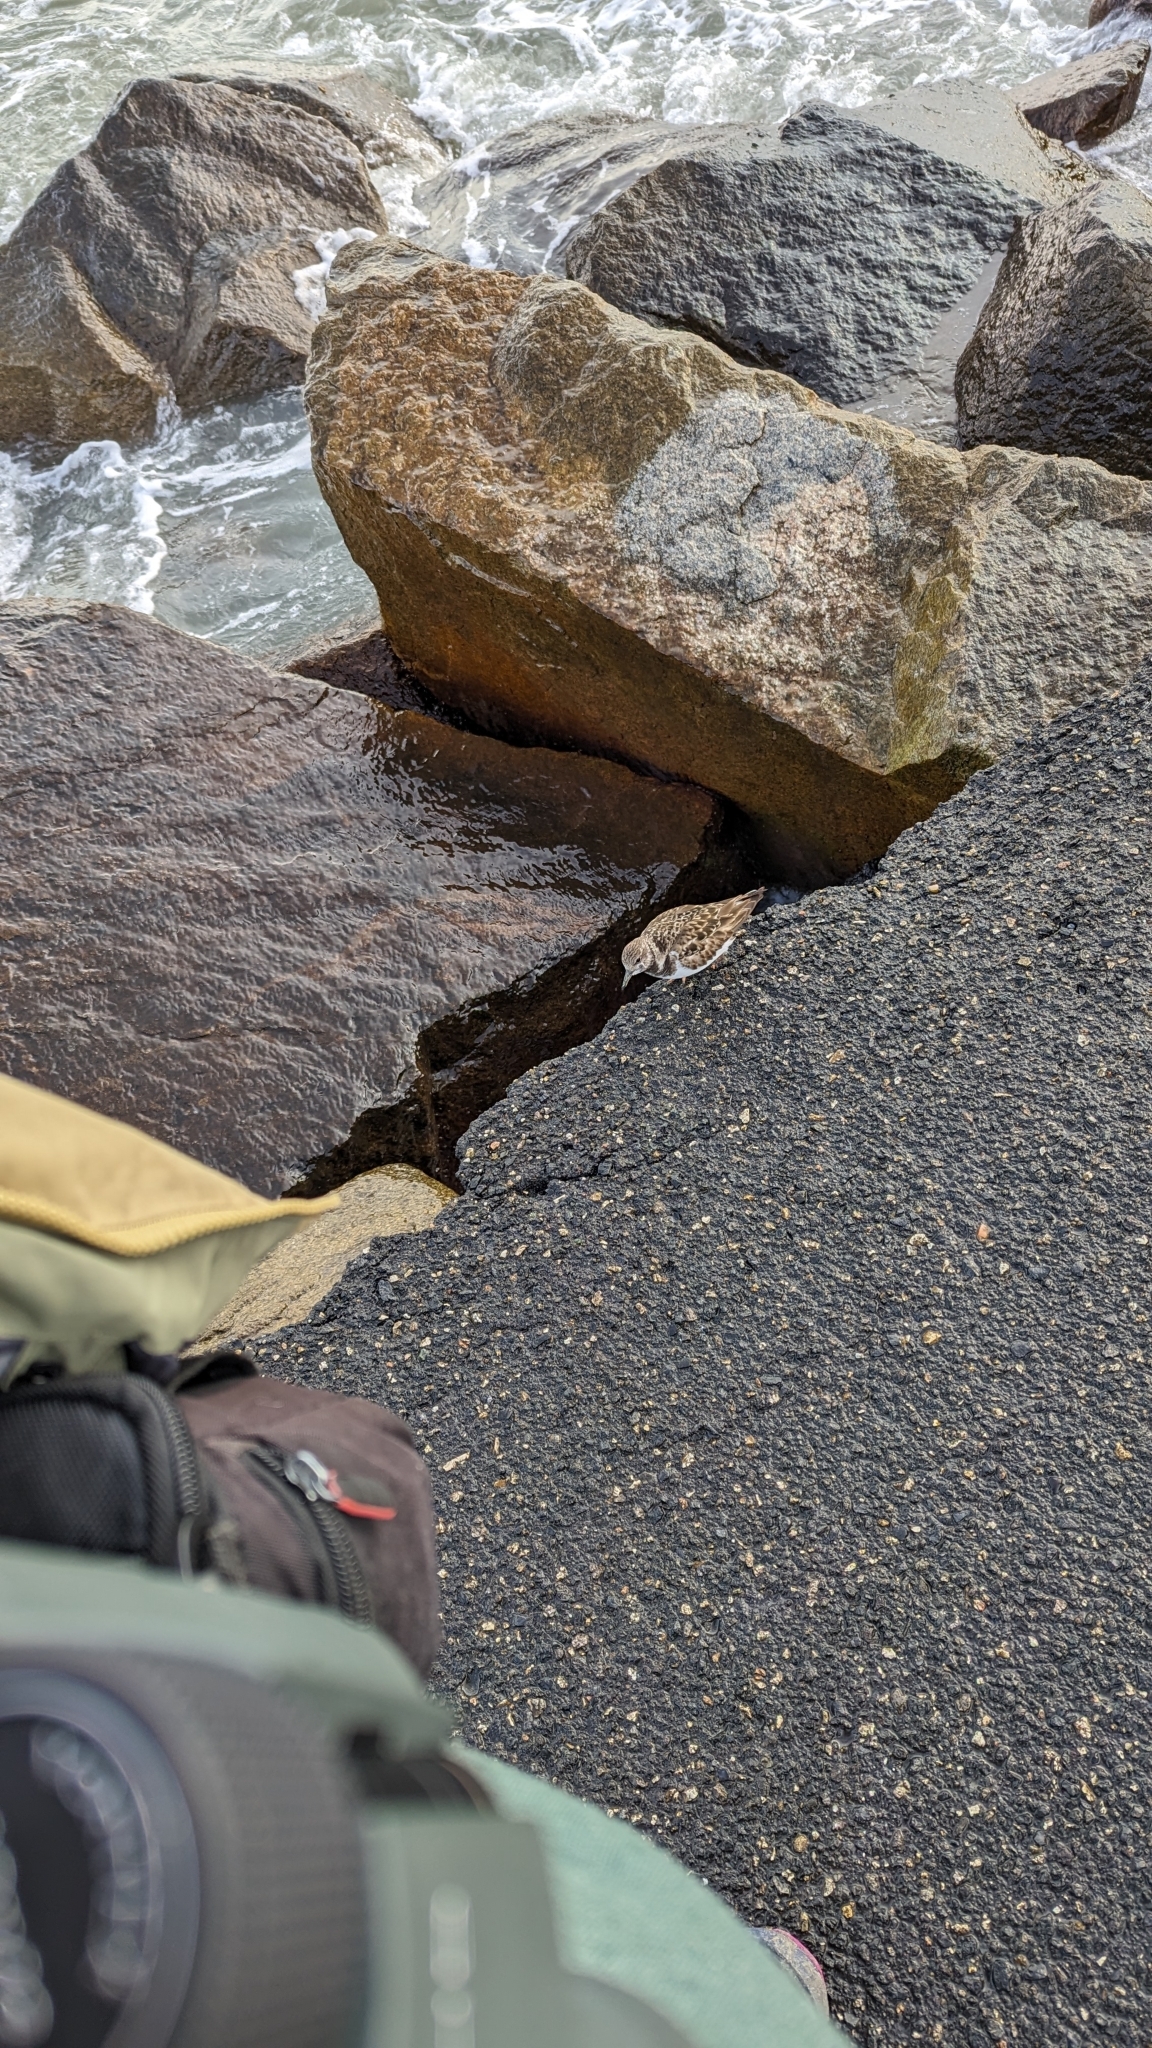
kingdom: Animalia
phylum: Chordata
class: Aves
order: Charadriiformes
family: Scolopacidae
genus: Arenaria
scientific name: Arenaria interpres
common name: Ruddy turnstone
